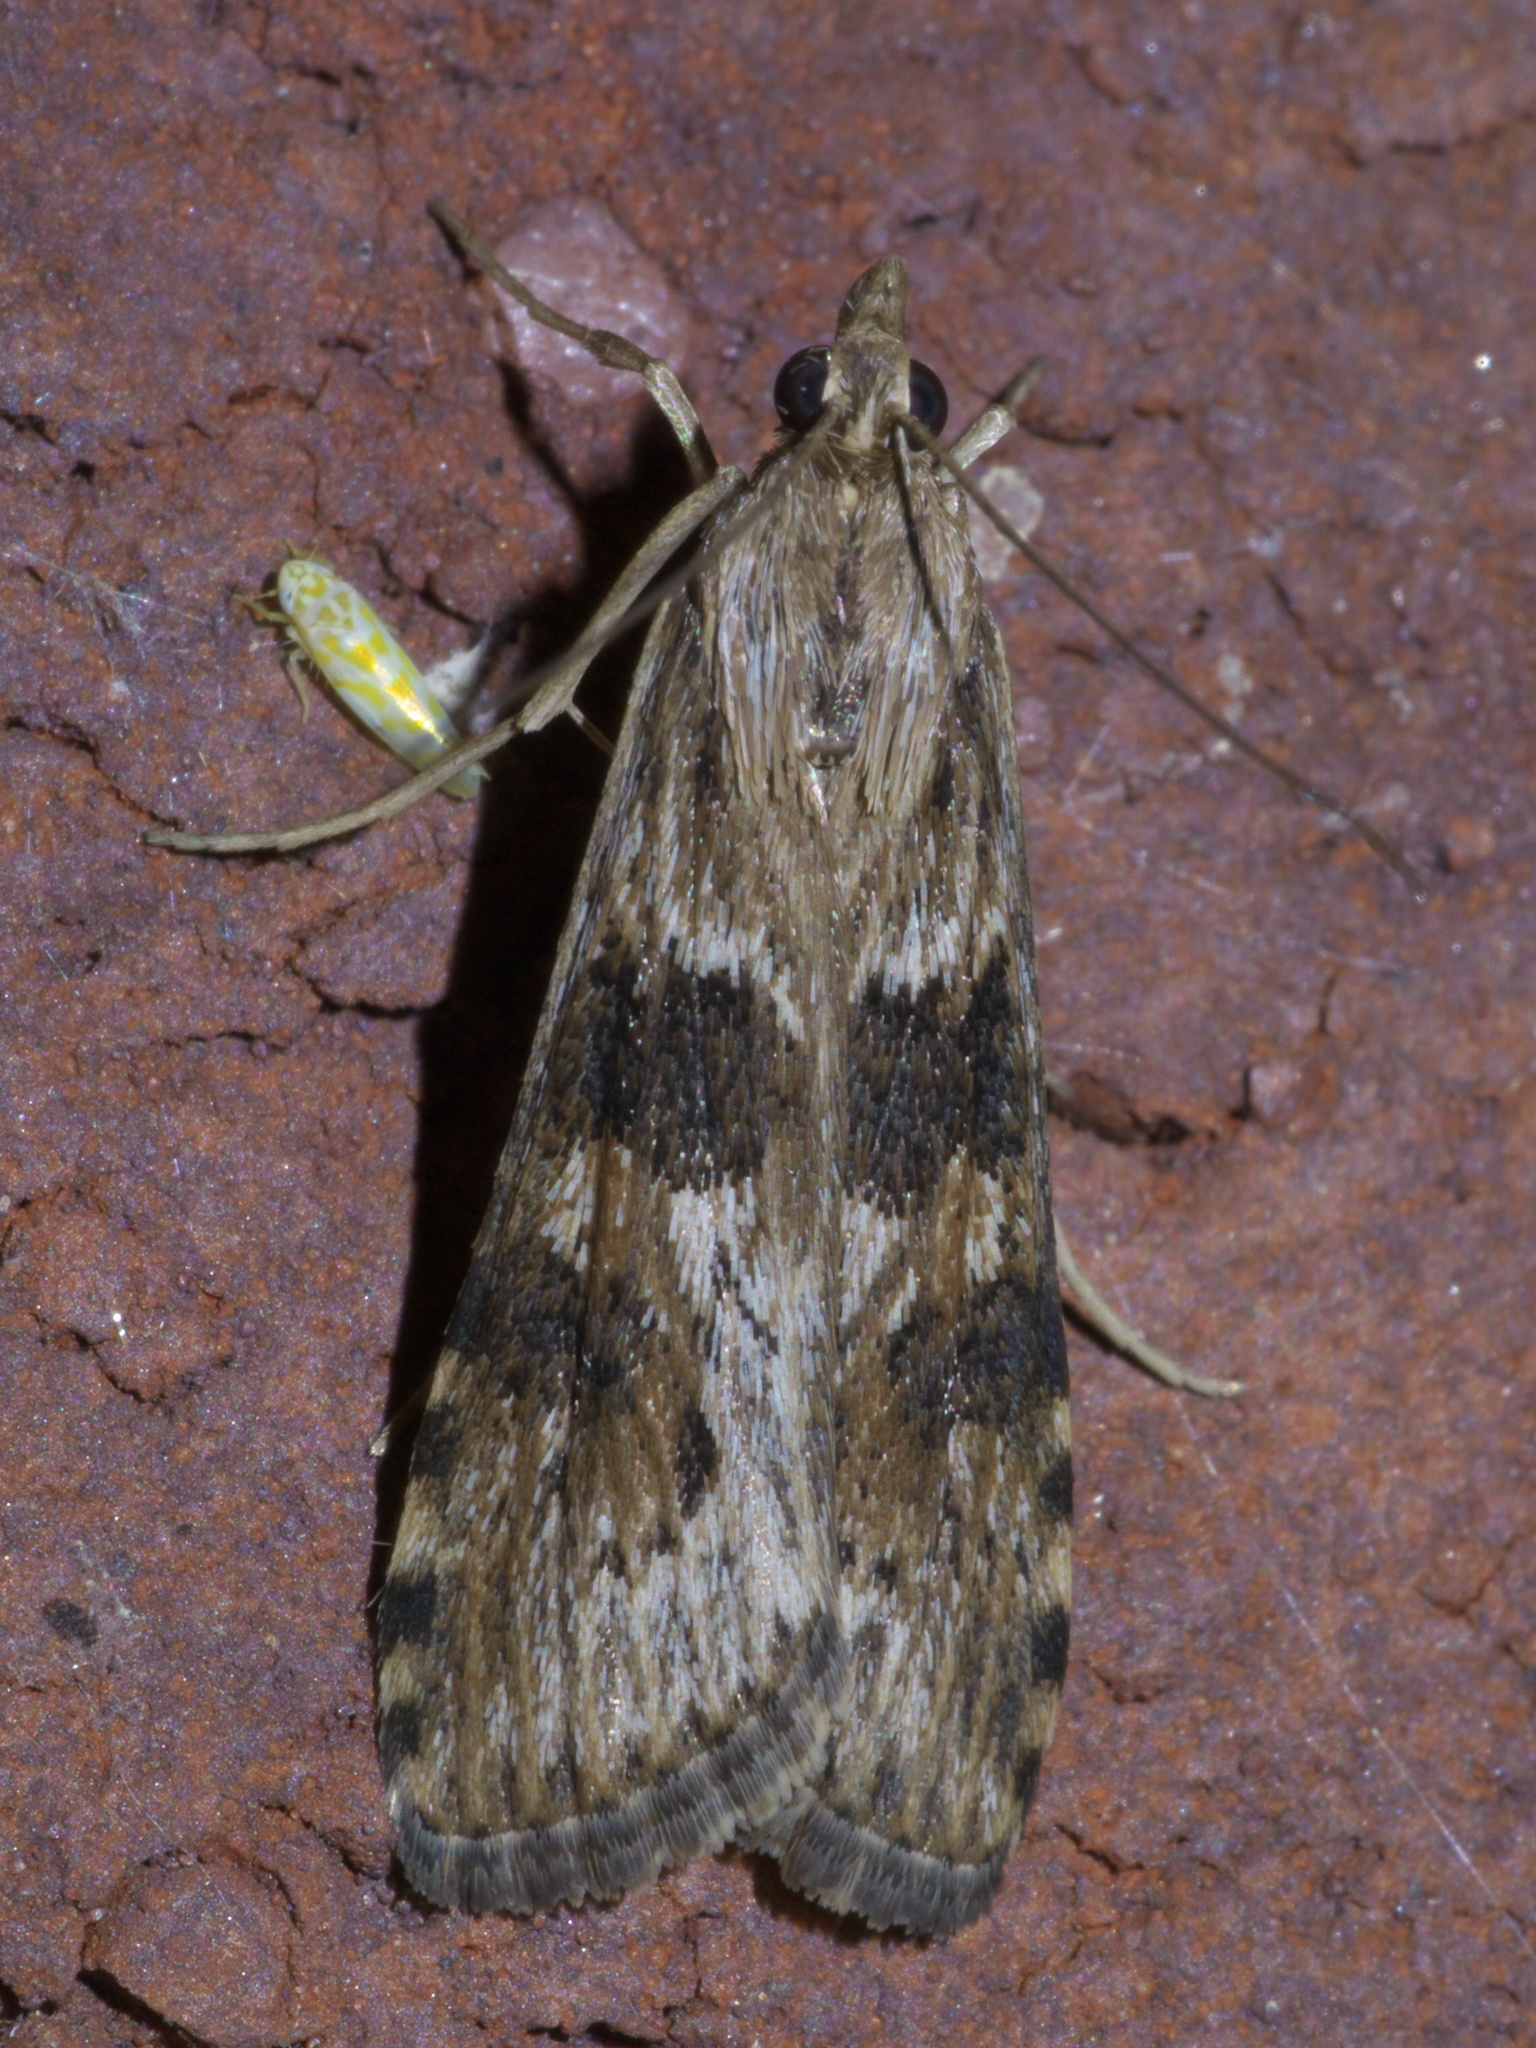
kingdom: Animalia
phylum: Arthropoda
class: Insecta
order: Lepidoptera
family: Crambidae
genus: Nomophila
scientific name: Nomophila nearctica
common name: American rush veneer
